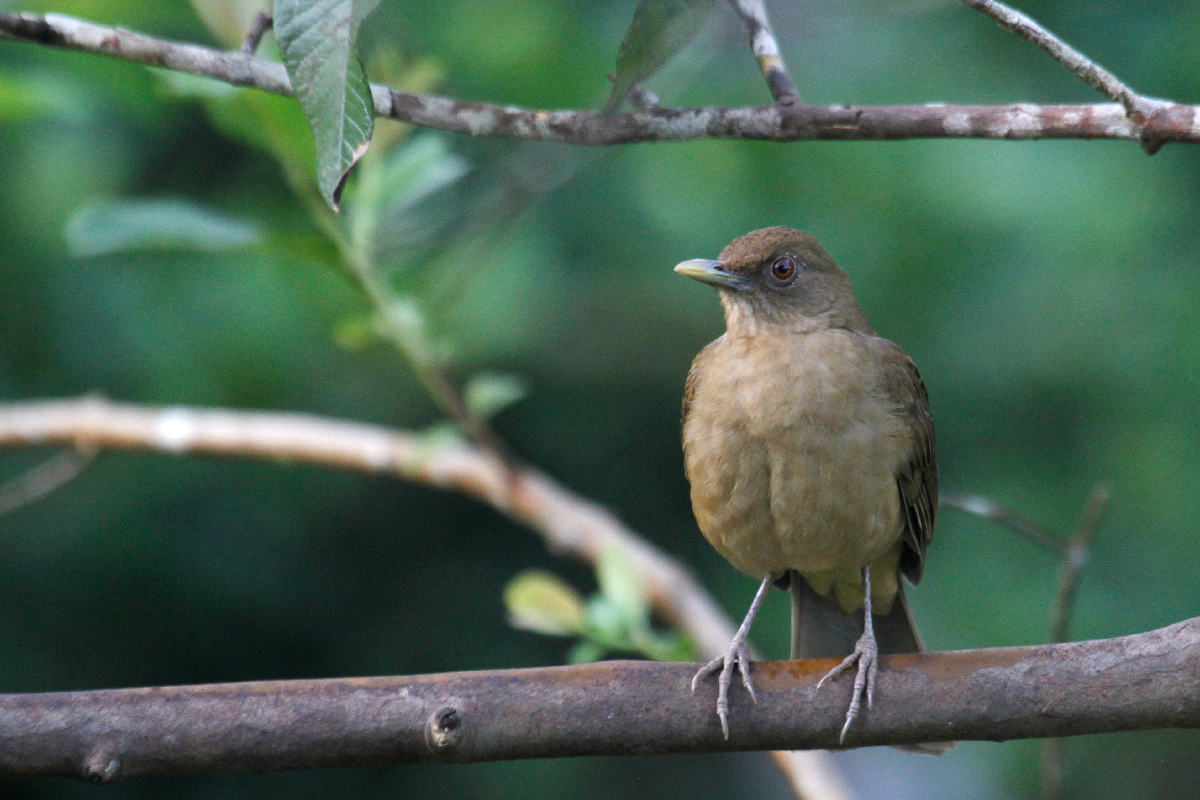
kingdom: Animalia
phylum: Chordata
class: Aves
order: Passeriformes
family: Turdidae
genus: Turdus
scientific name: Turdus grayi
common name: Clay-colored thrush
